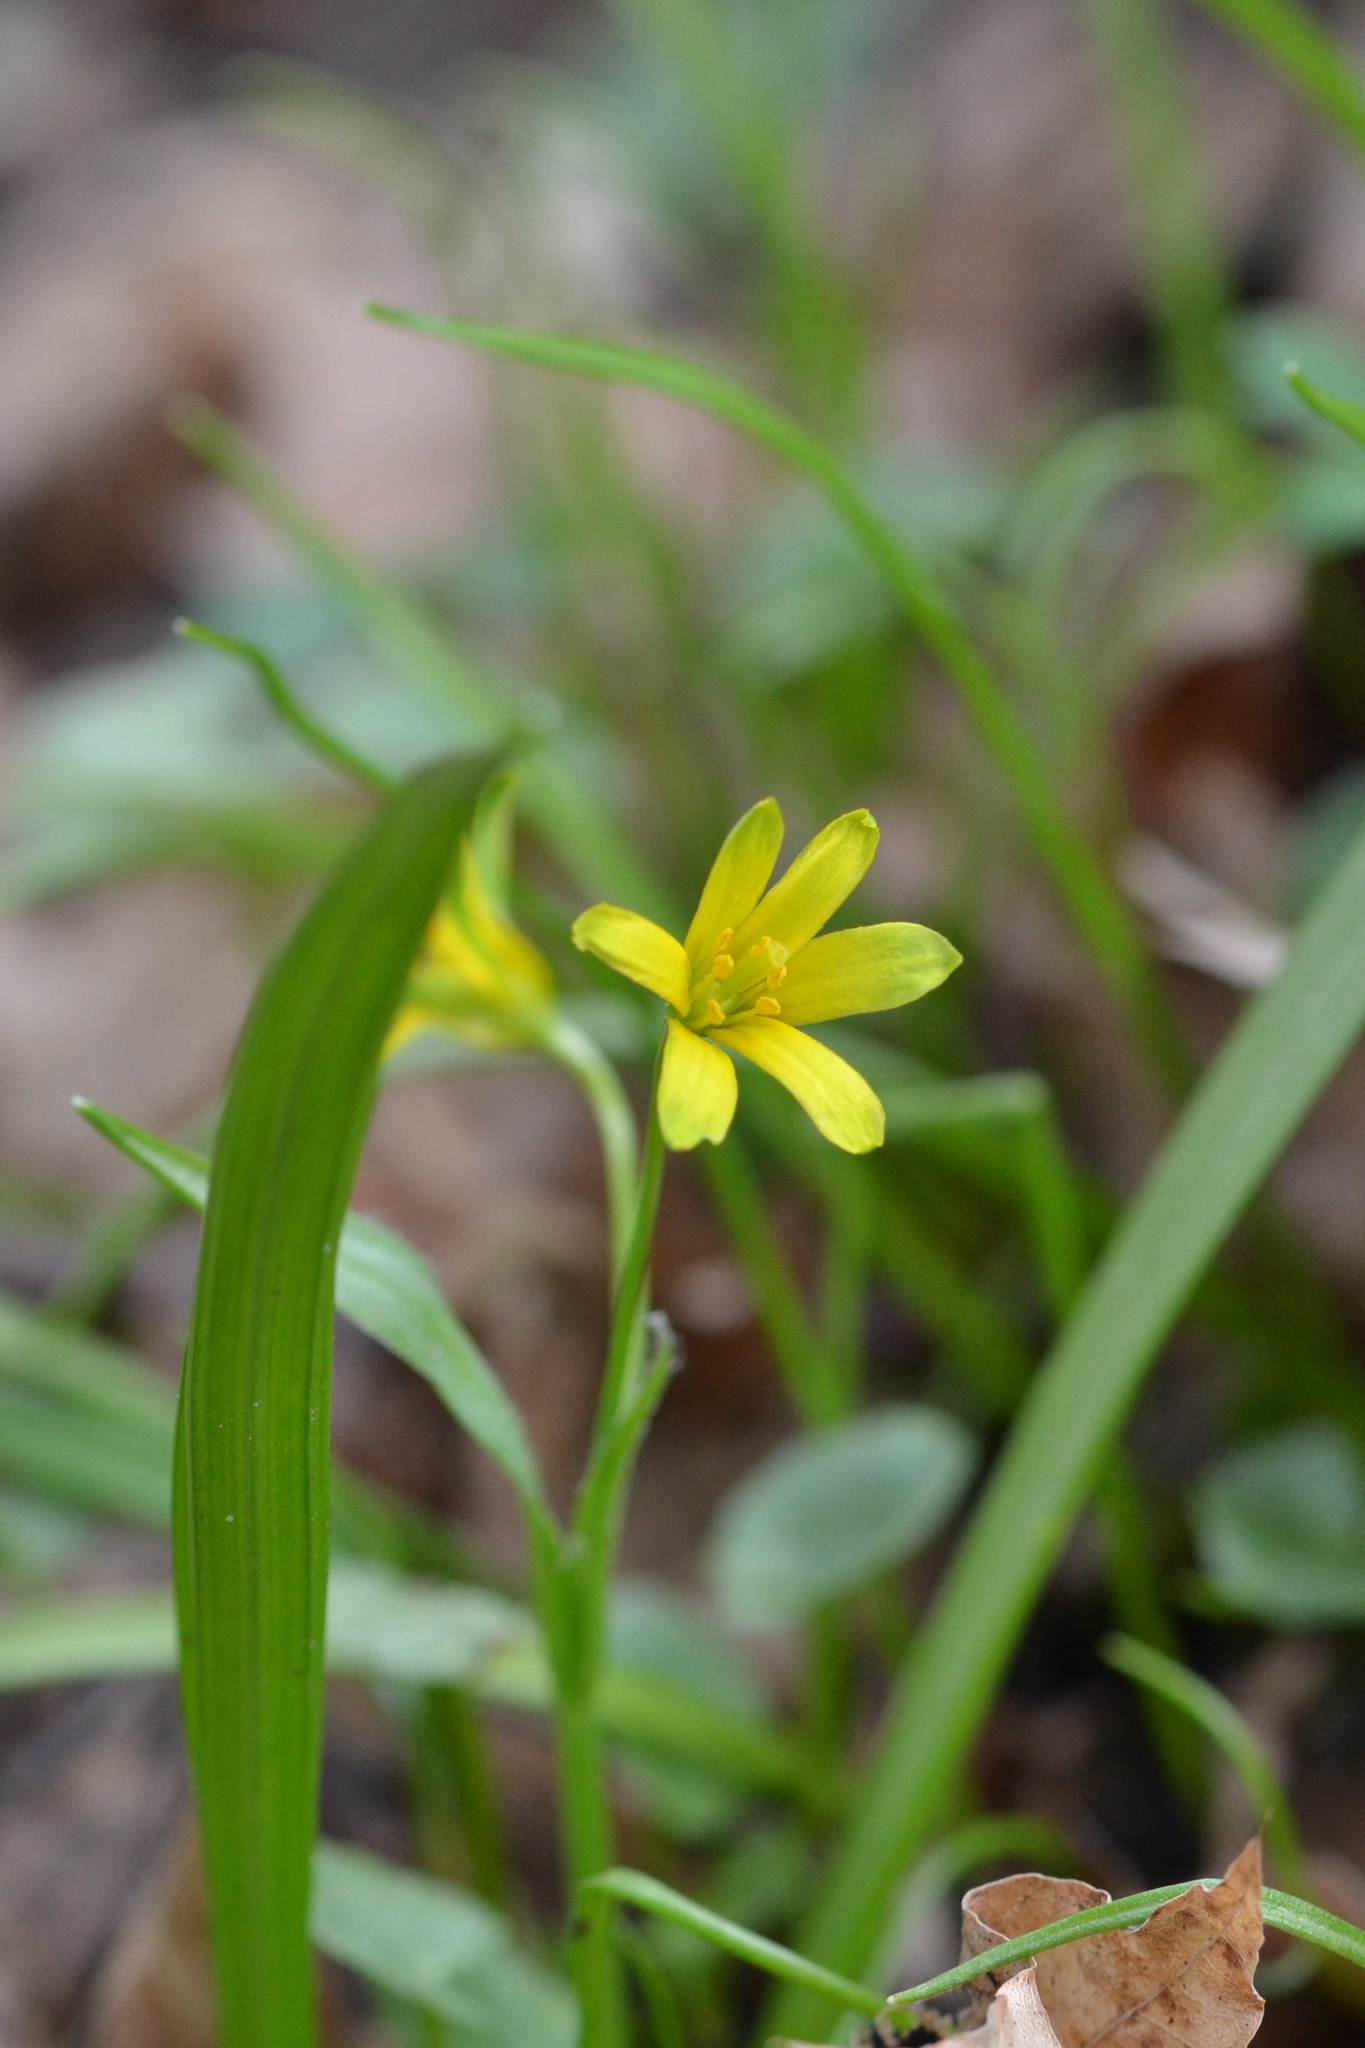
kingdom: Plantae
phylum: Tracheophyta
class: Liliopsida
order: Liliales
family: Liliaceae
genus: Gagea
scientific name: Gagea lutea
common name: Yellow star-of-bethlehem
